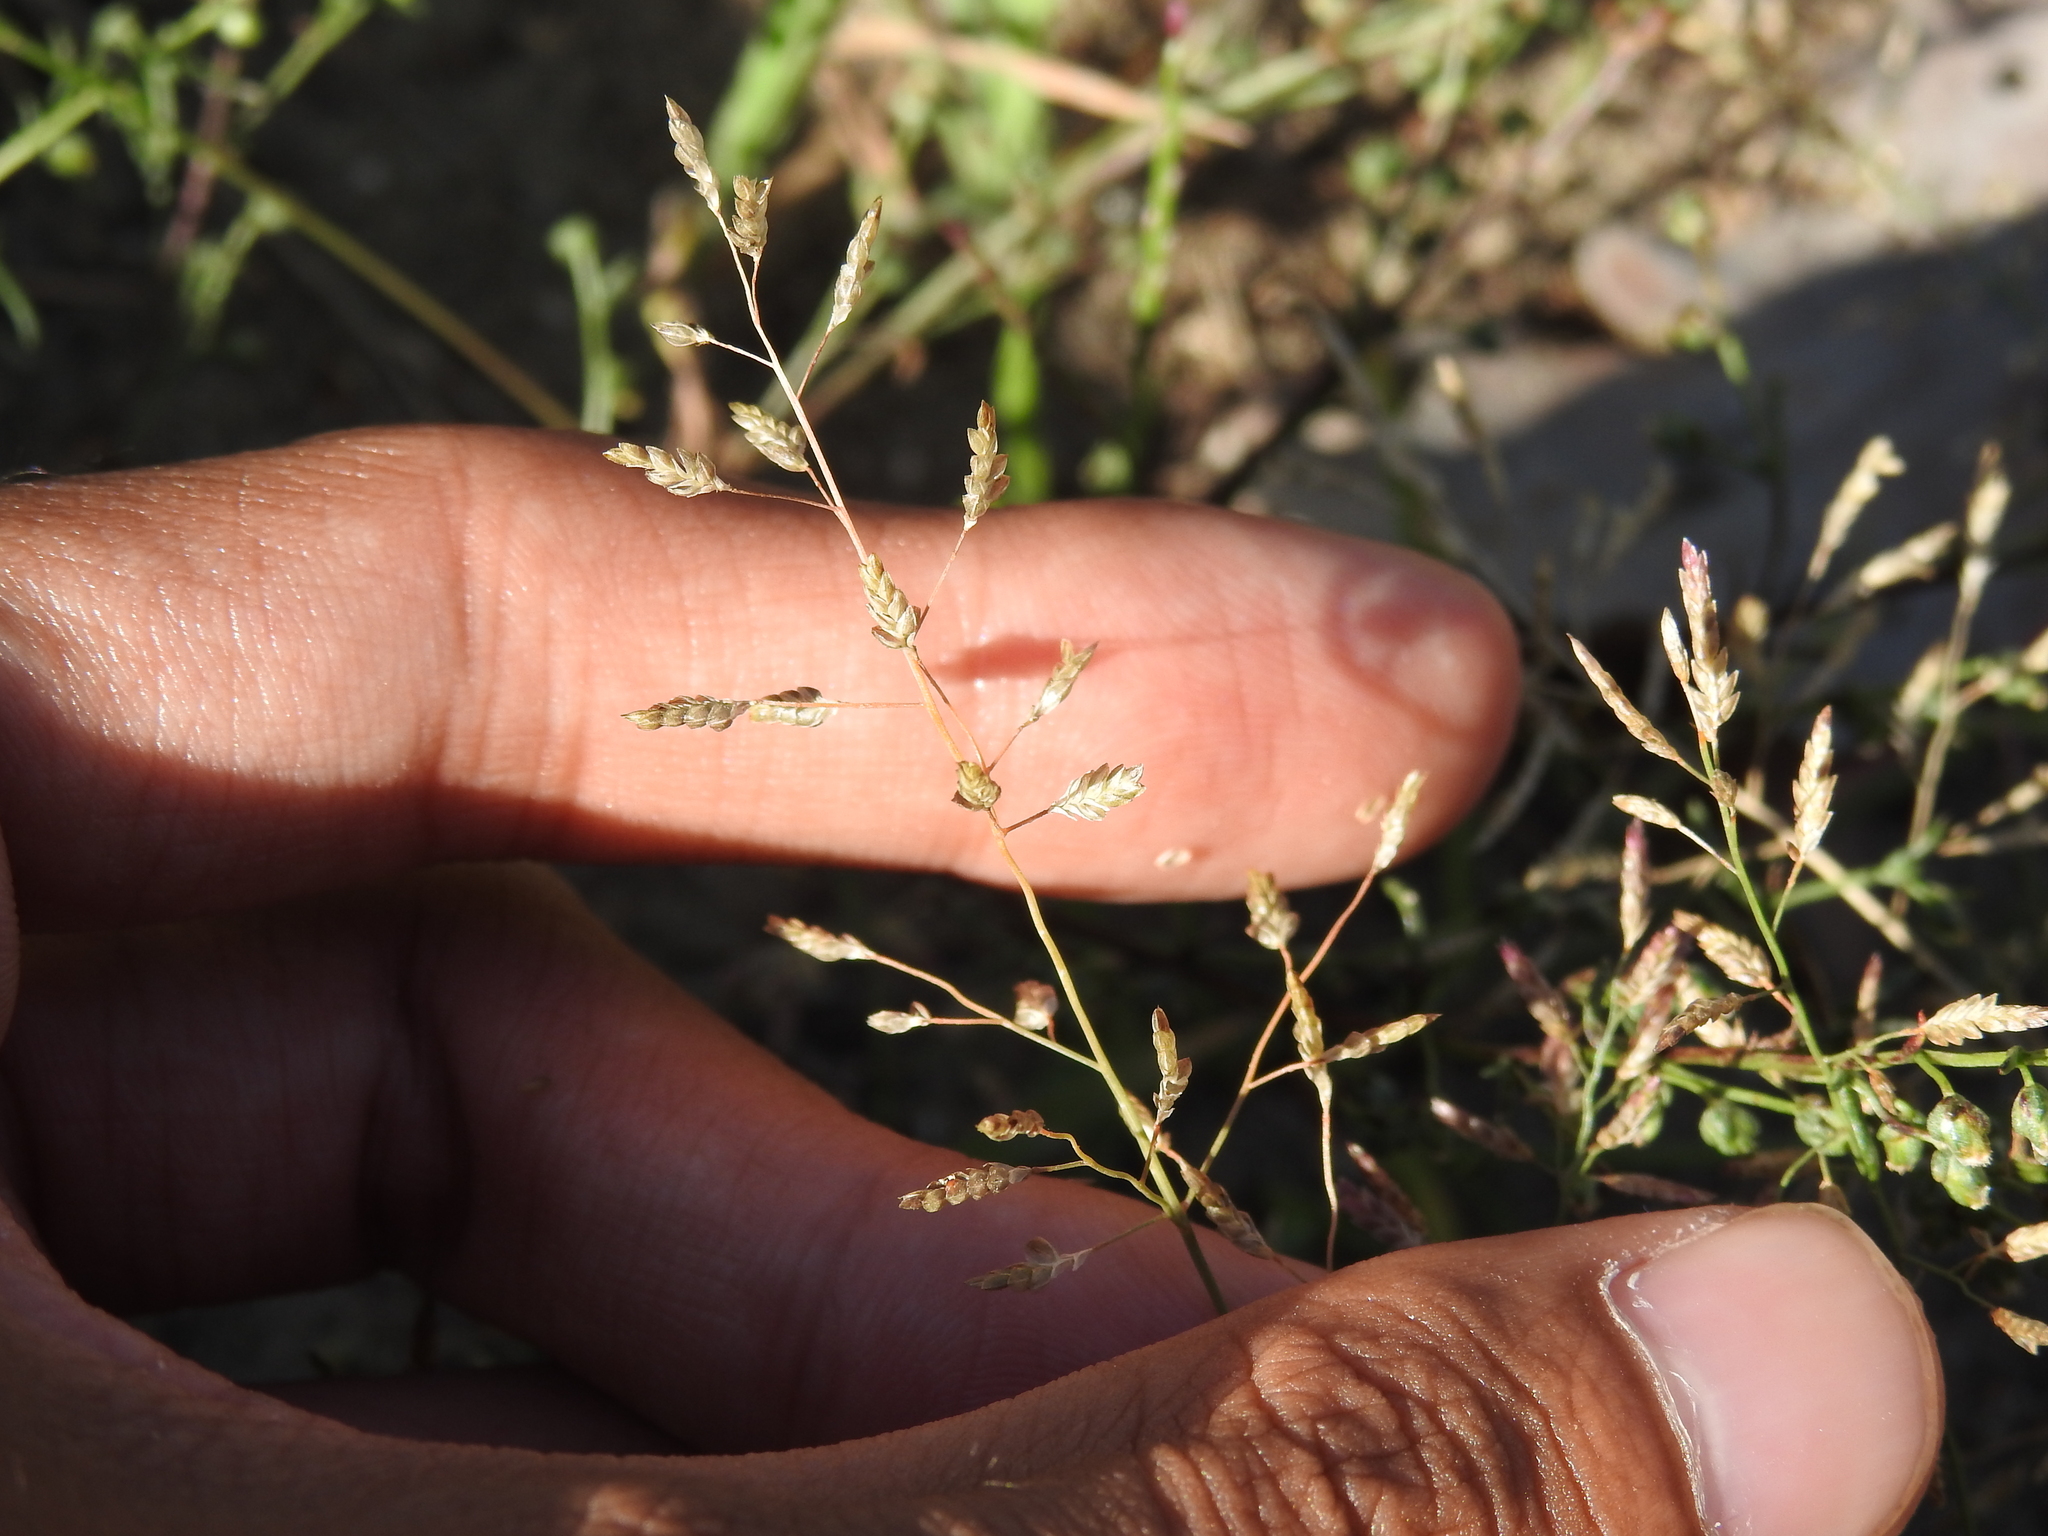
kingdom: Plantae
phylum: Tracheophyta
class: Liliopsida
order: Poales
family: Poaceae
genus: Eragrostis
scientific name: Eragrostis minor
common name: Small love-grass
